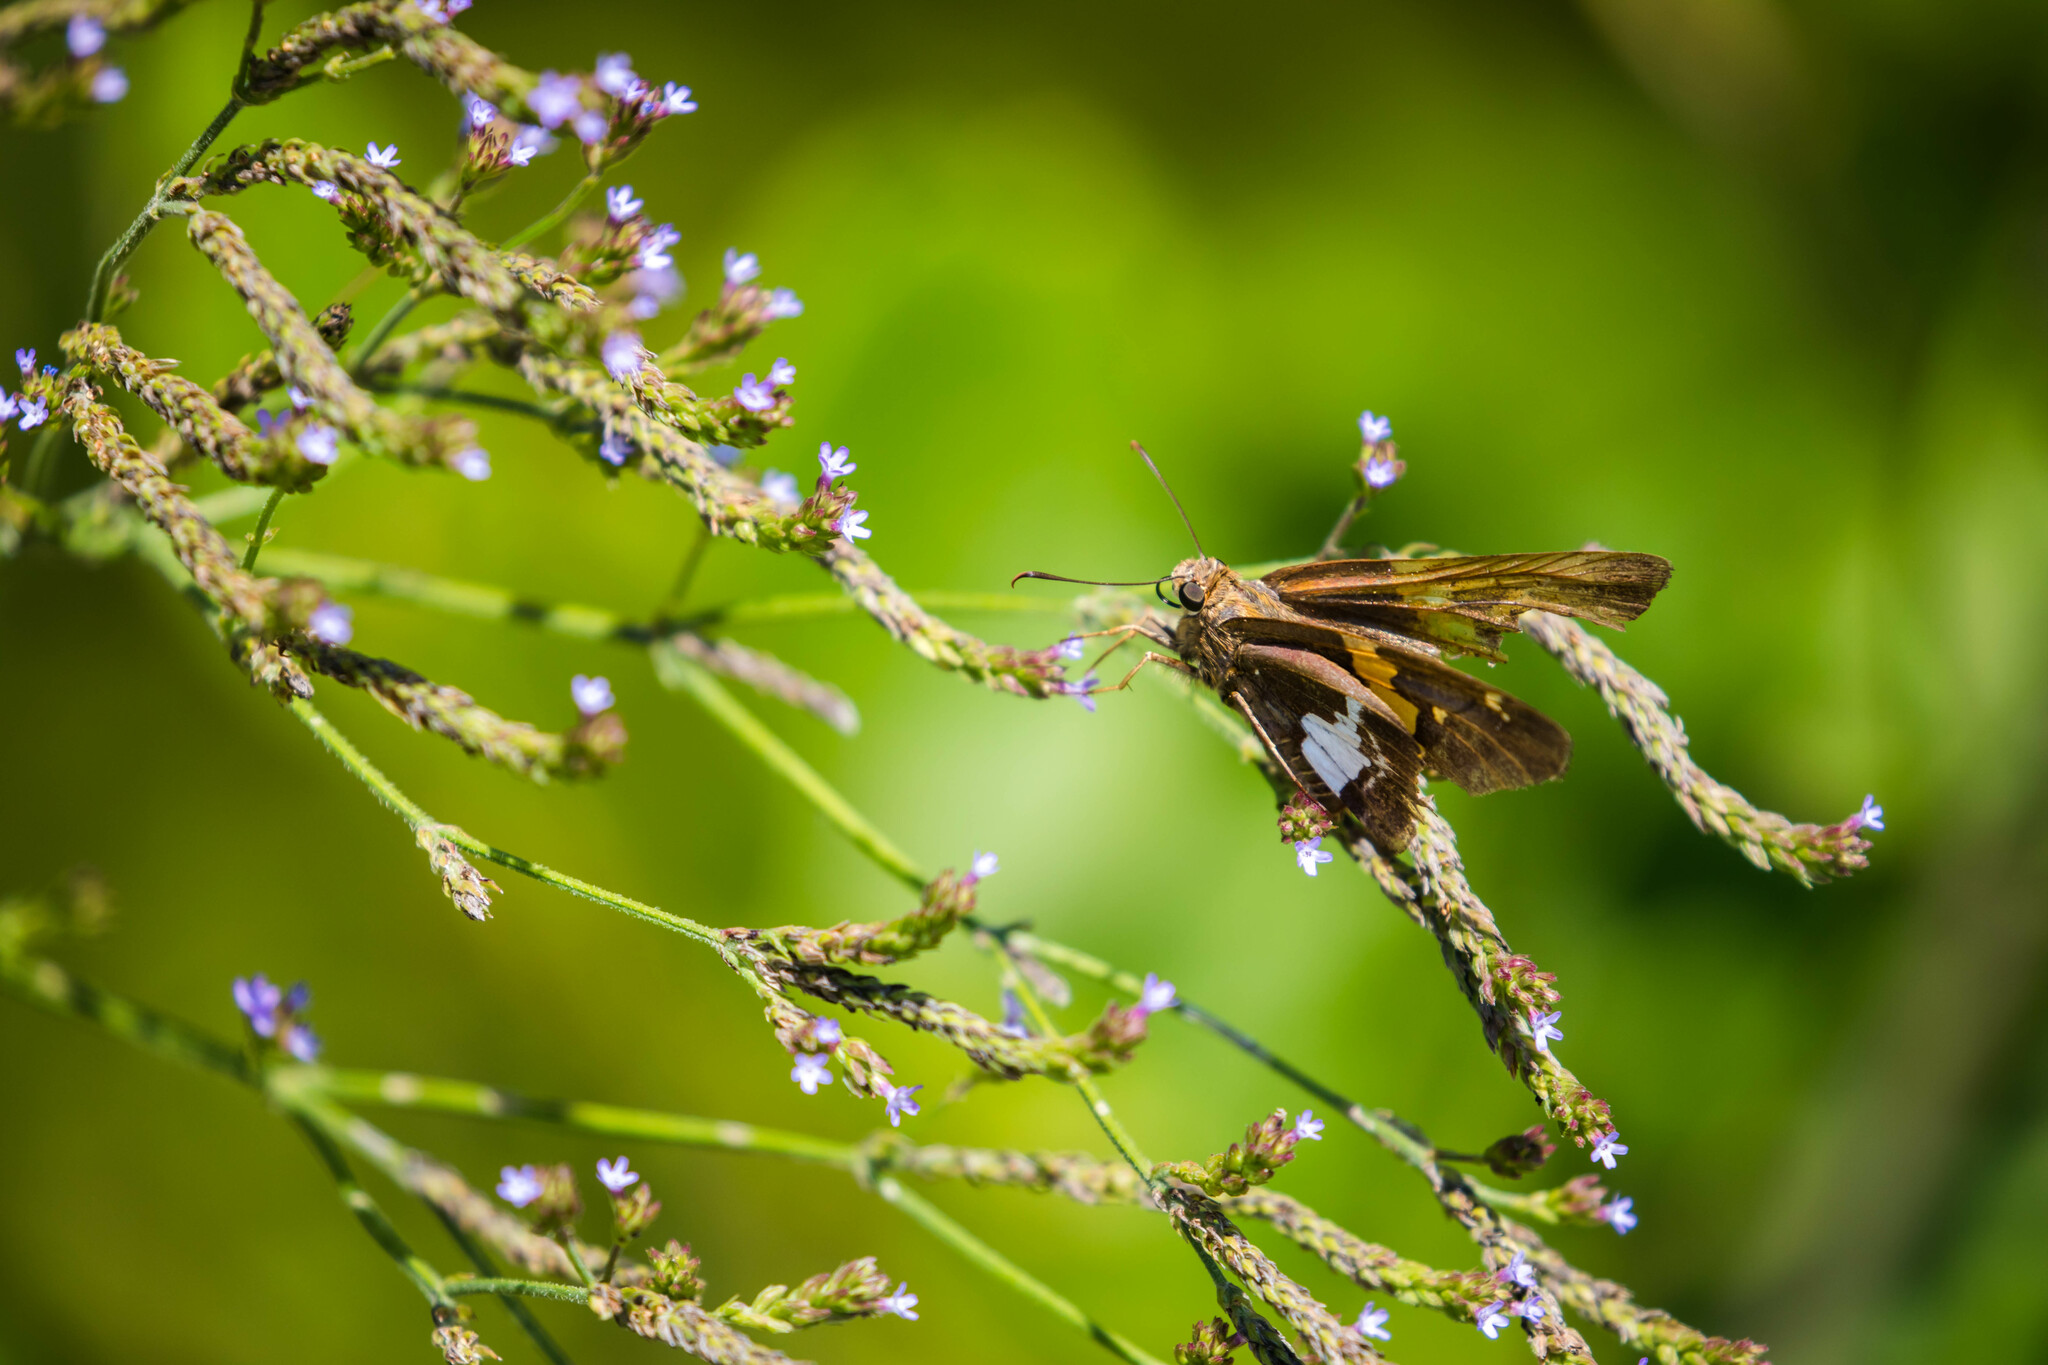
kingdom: Animalia
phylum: Arthropoda
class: Insecta
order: Lepidoptera
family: Hesperiidae
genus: Epargyreus
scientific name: Epargyreus clarus
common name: Silver-spotted skipper
